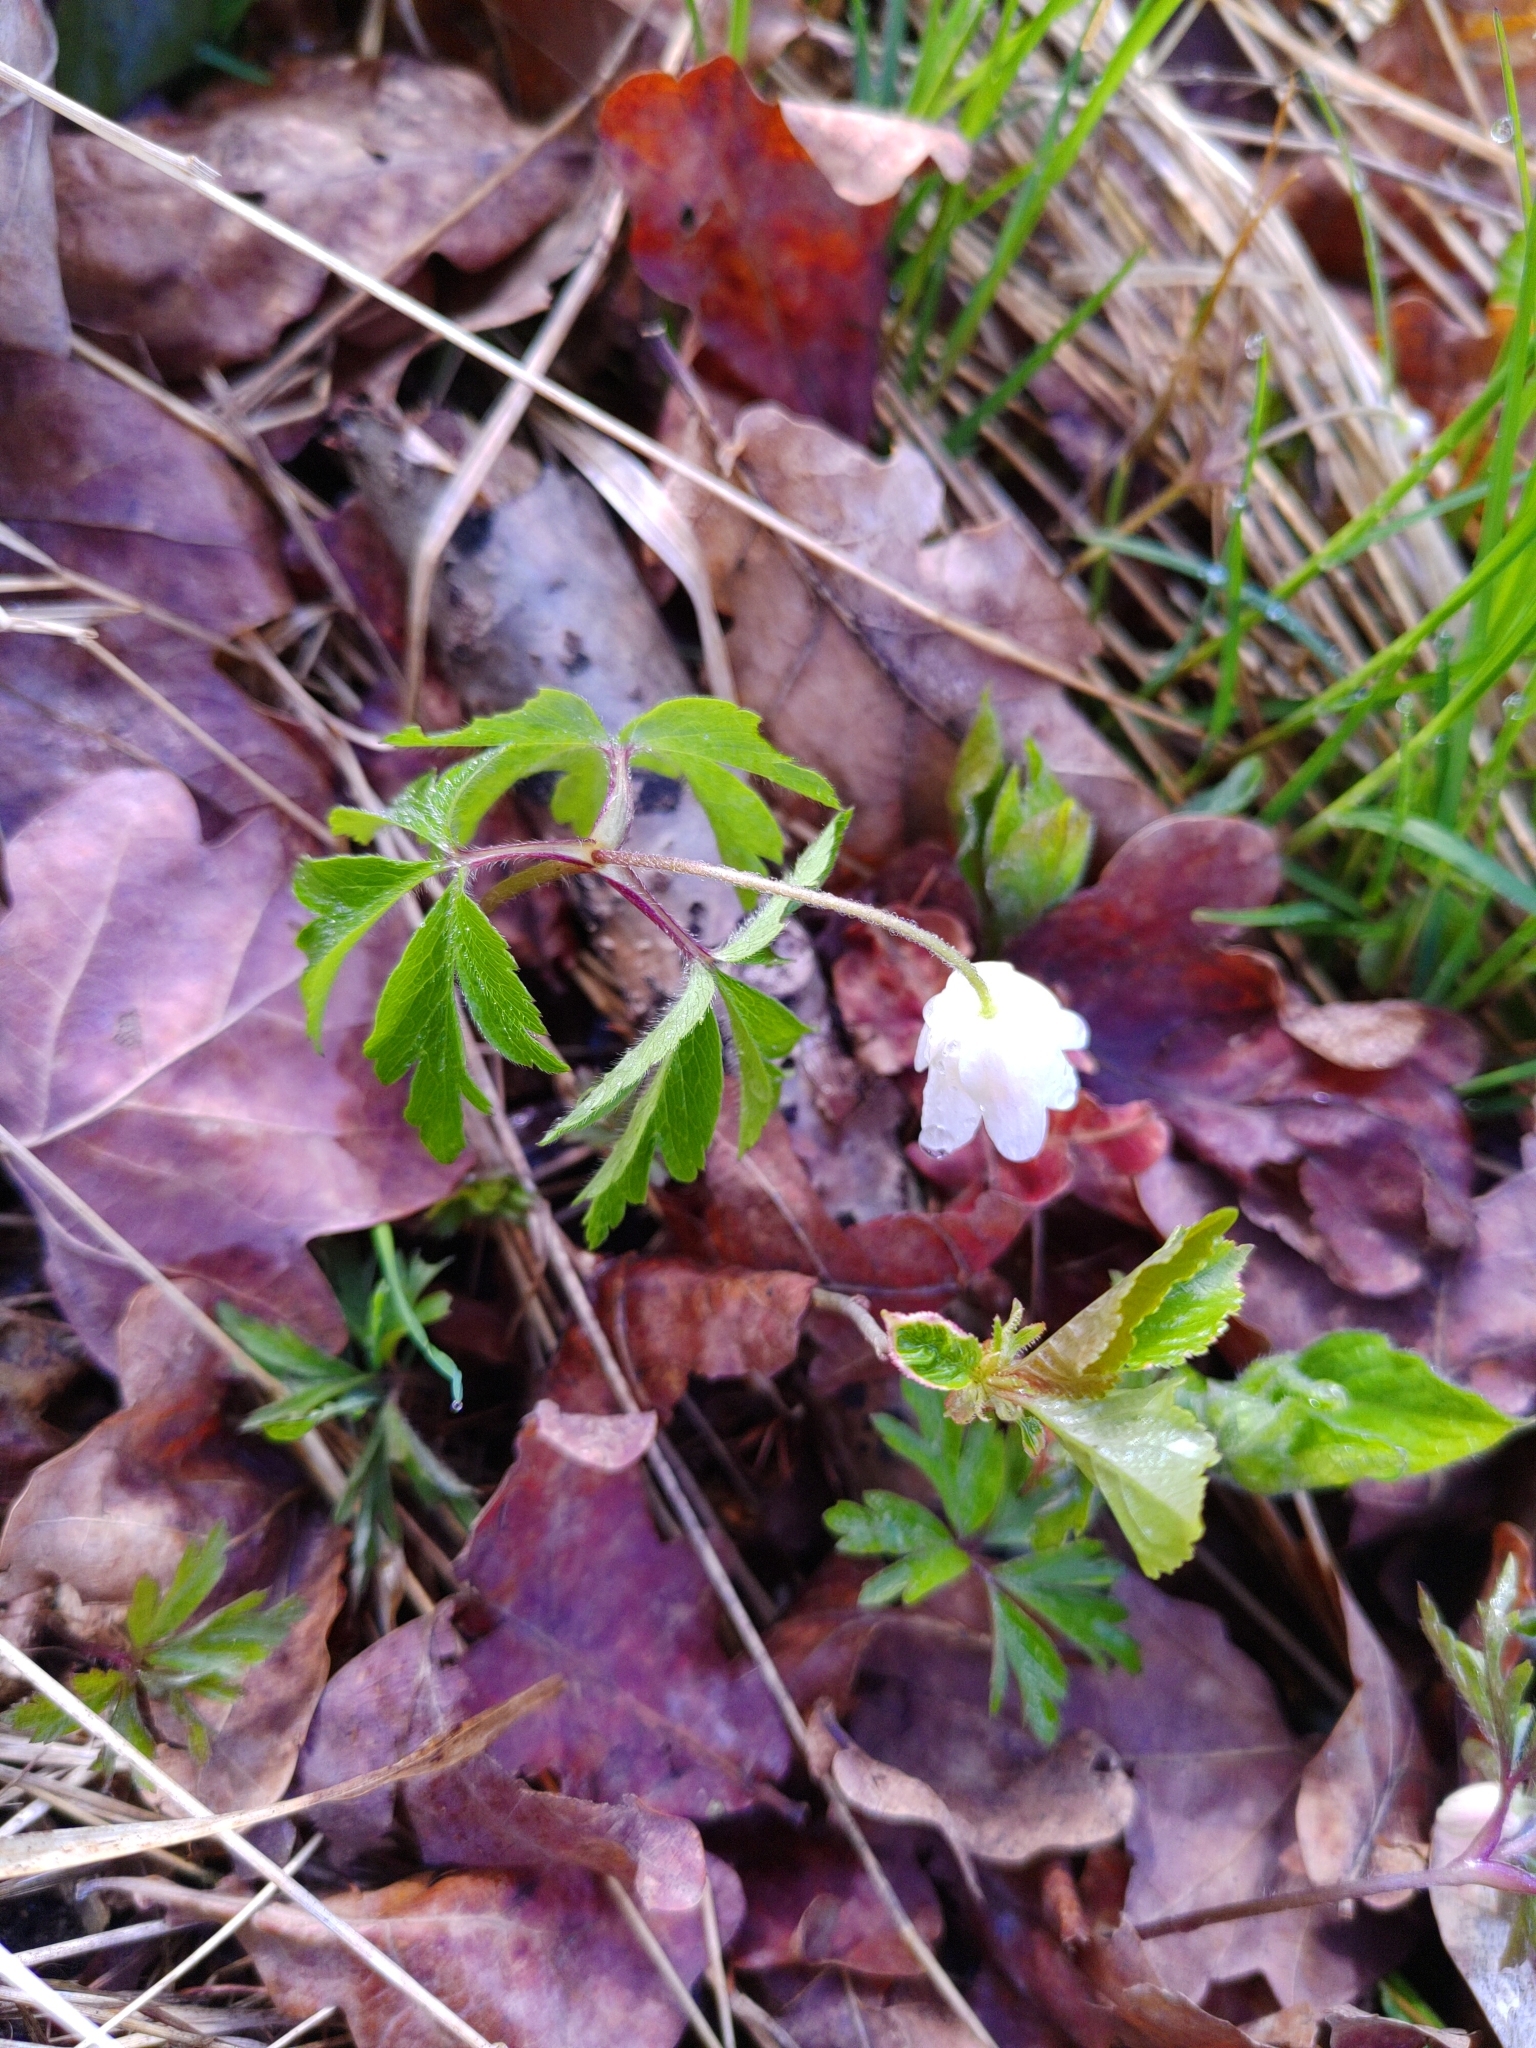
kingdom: Plantae
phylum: Tracheophyta
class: Magnoliopsida
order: Ranunculales
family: Ranunculaceae
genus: Anemone
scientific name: Anemone nemorosa
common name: Wood anemone
